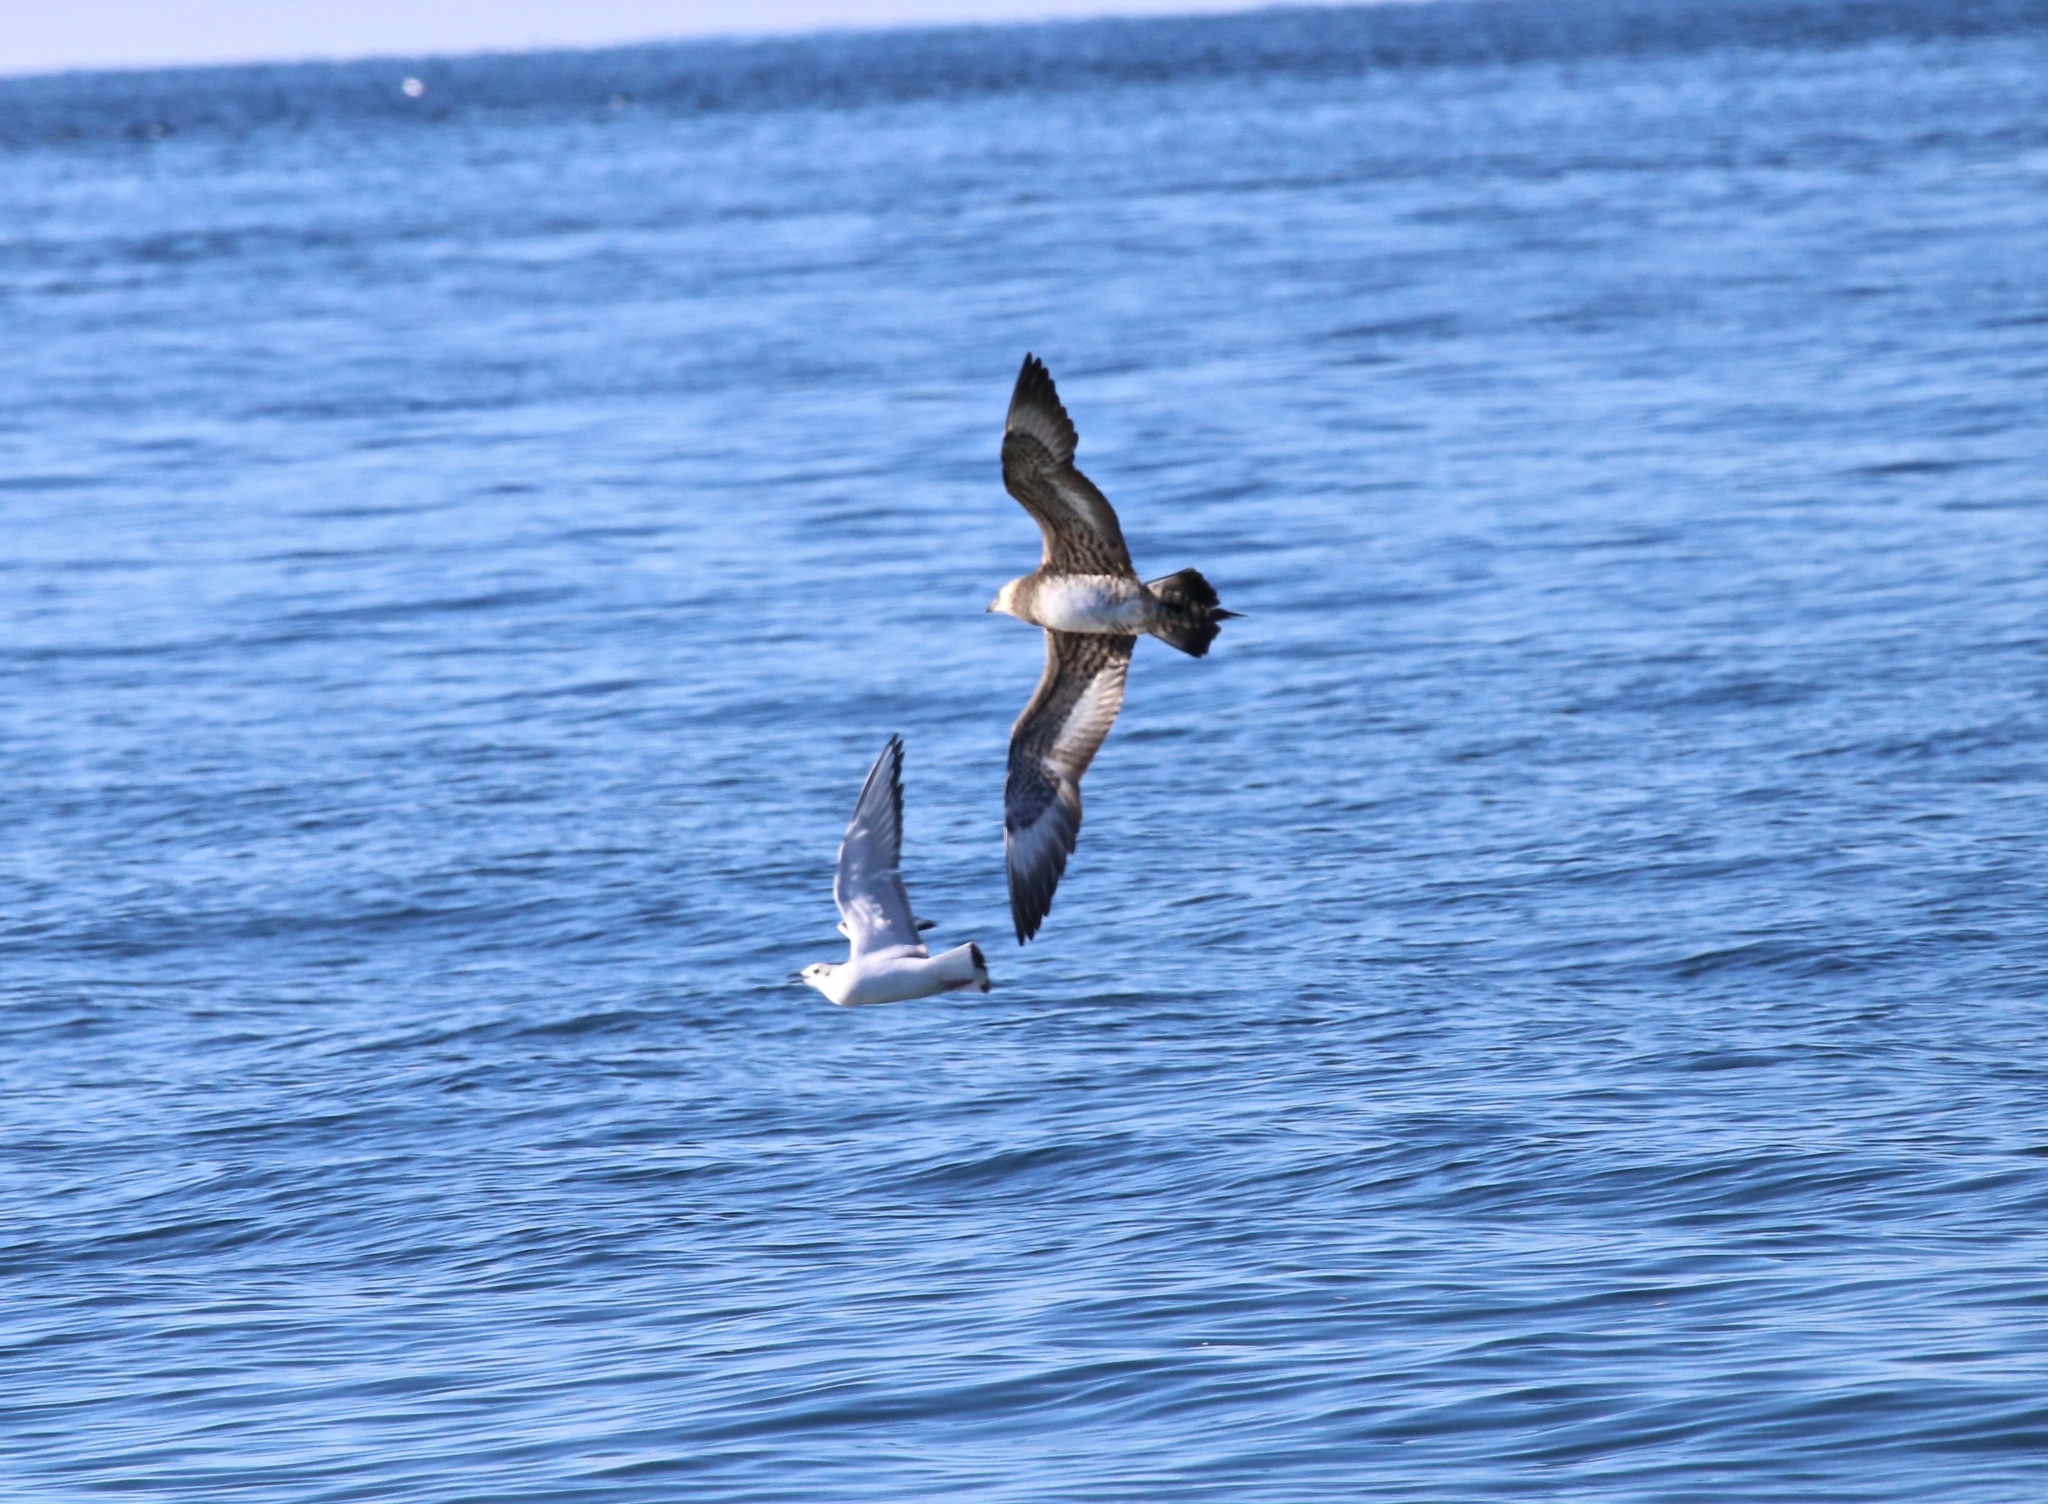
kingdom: Animalia
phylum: Chordata
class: Aves
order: Charadriiformes
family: Stercorariidae
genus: Stercorarius
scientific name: Stercorarius parasiticus
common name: Parasitic jaeger
